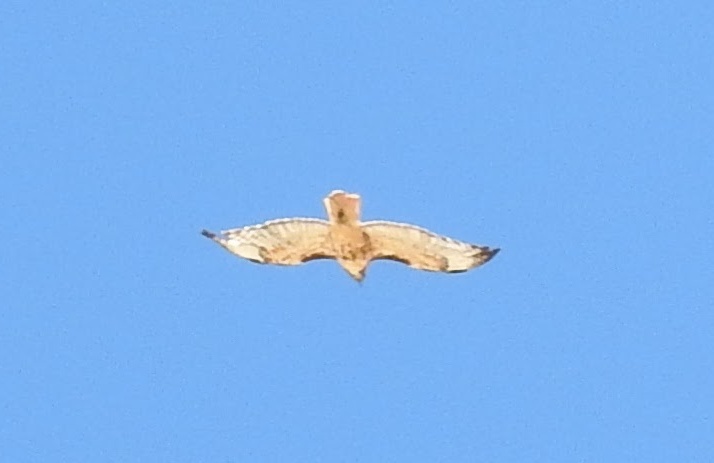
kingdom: Animalia
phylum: Chordata
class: Aves
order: Accipitriformes
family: Accipitridae
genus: Buteo
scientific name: Buteo jamaicensis
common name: Red-tailed hawk
